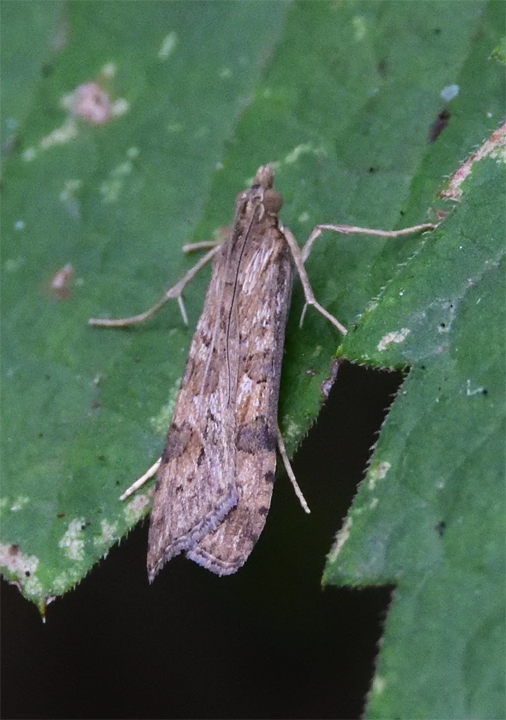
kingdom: Animalia
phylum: Arthropoda
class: Insecta
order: Lepidoptera
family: Crambidae
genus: Nomophila
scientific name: Nomophila nearctica
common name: American rush veneer
